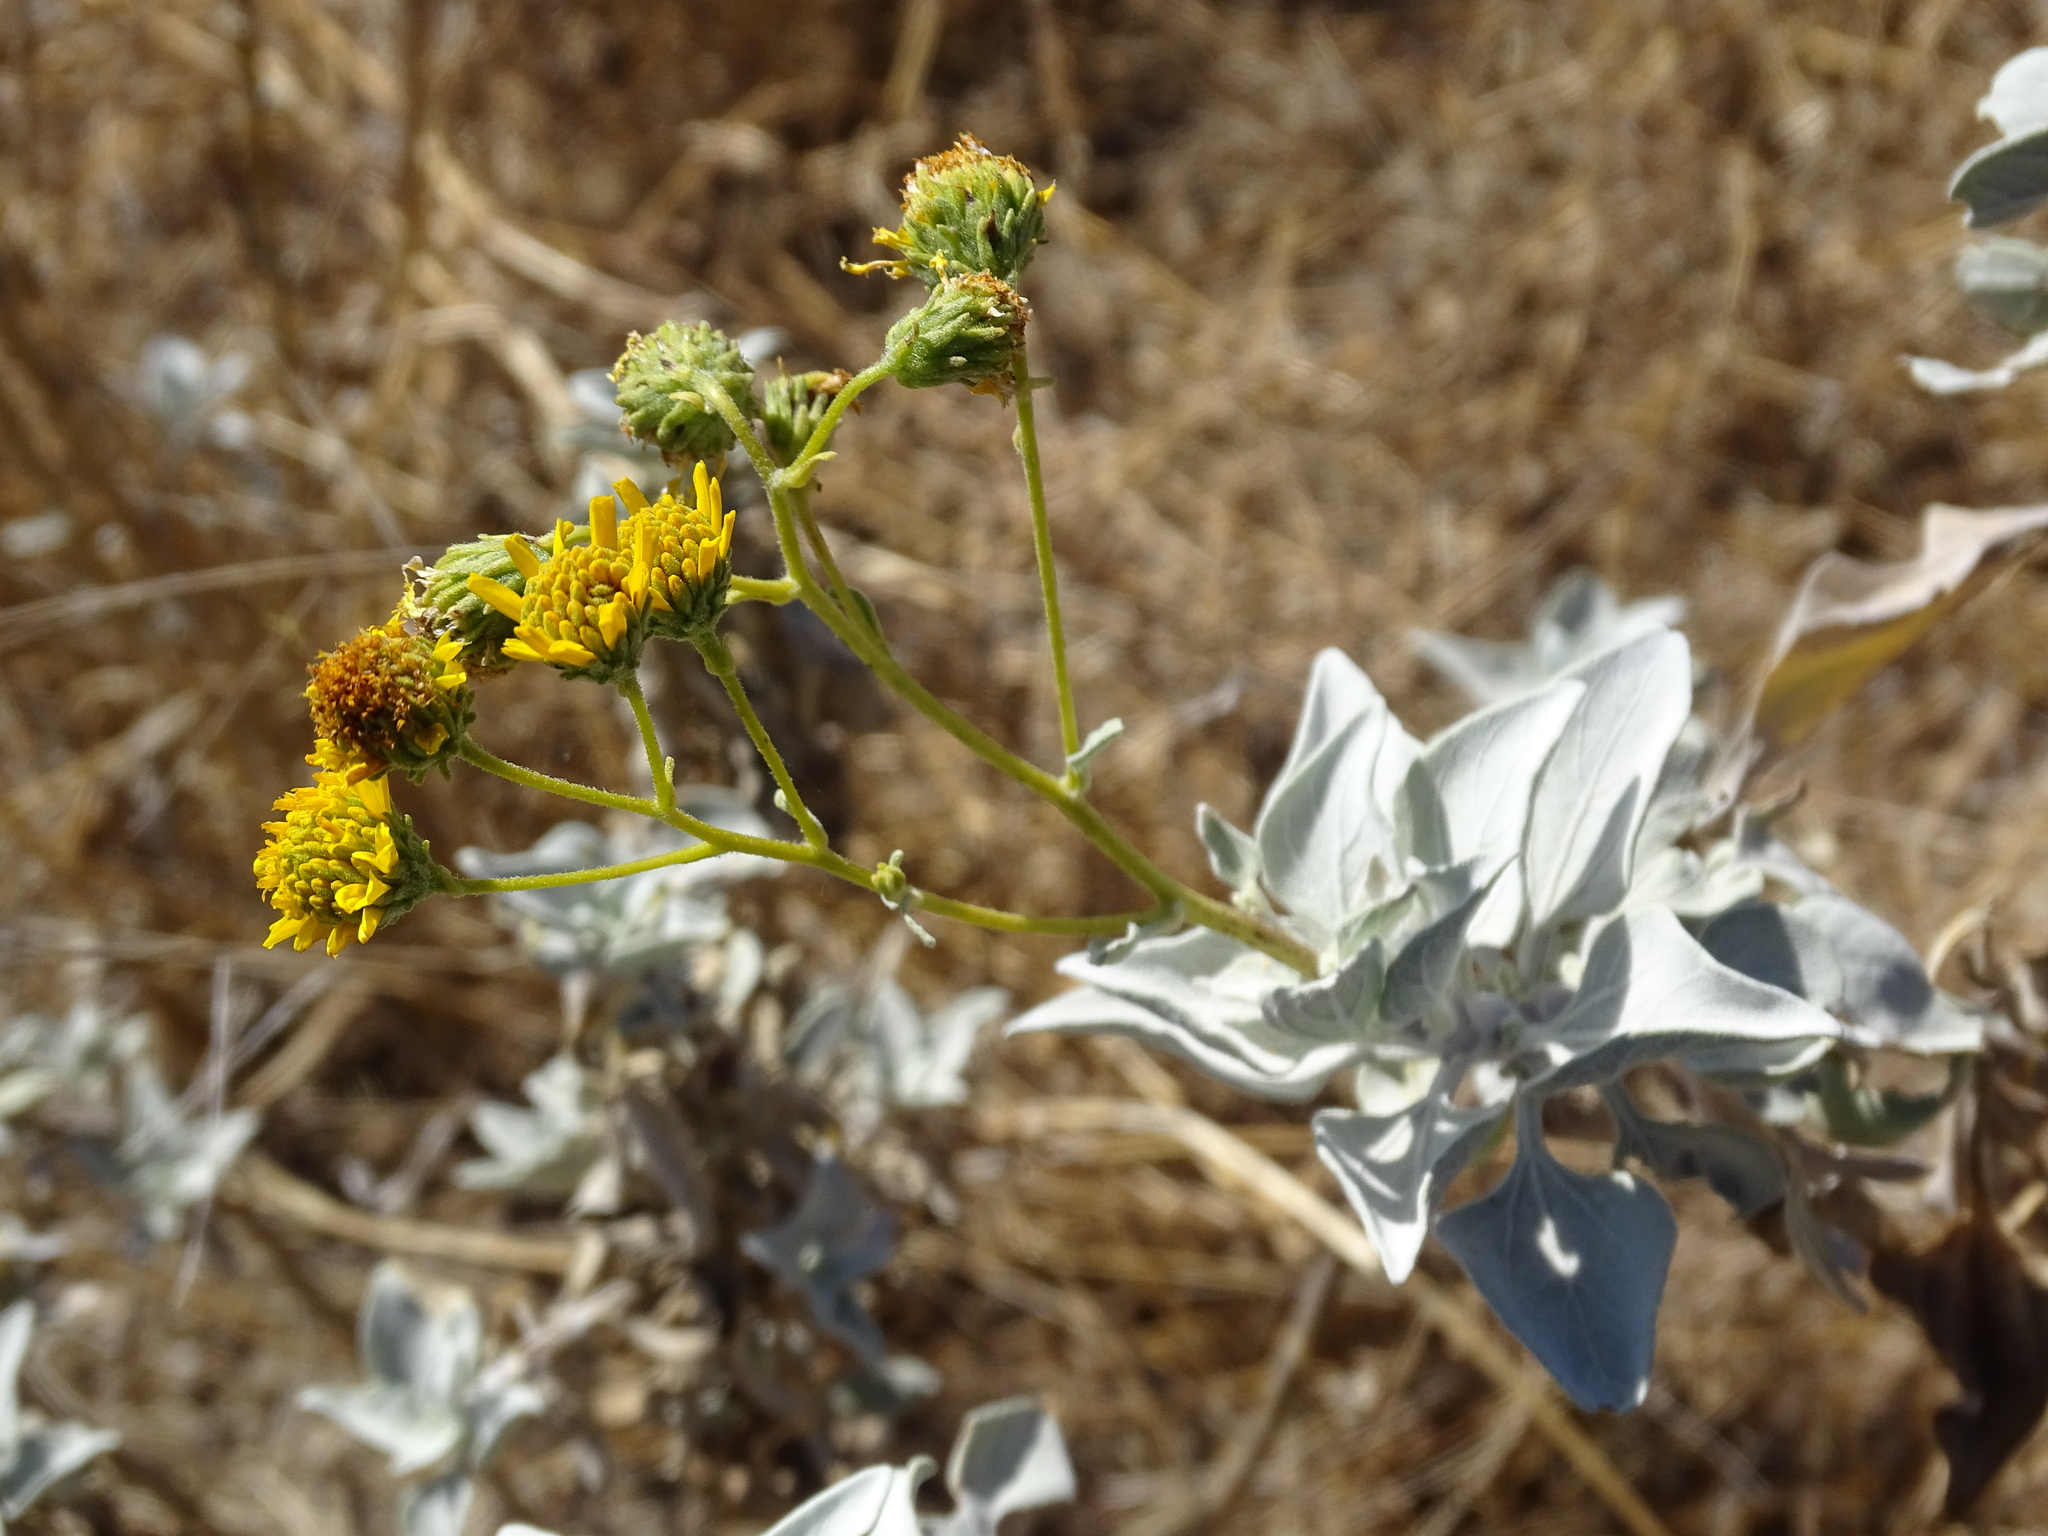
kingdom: Plantae
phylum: Tracheophyta
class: Magnoliopsida
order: Asterales
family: Asteraceae
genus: Encelia
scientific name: Encelia farinosa
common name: Brittlebush
